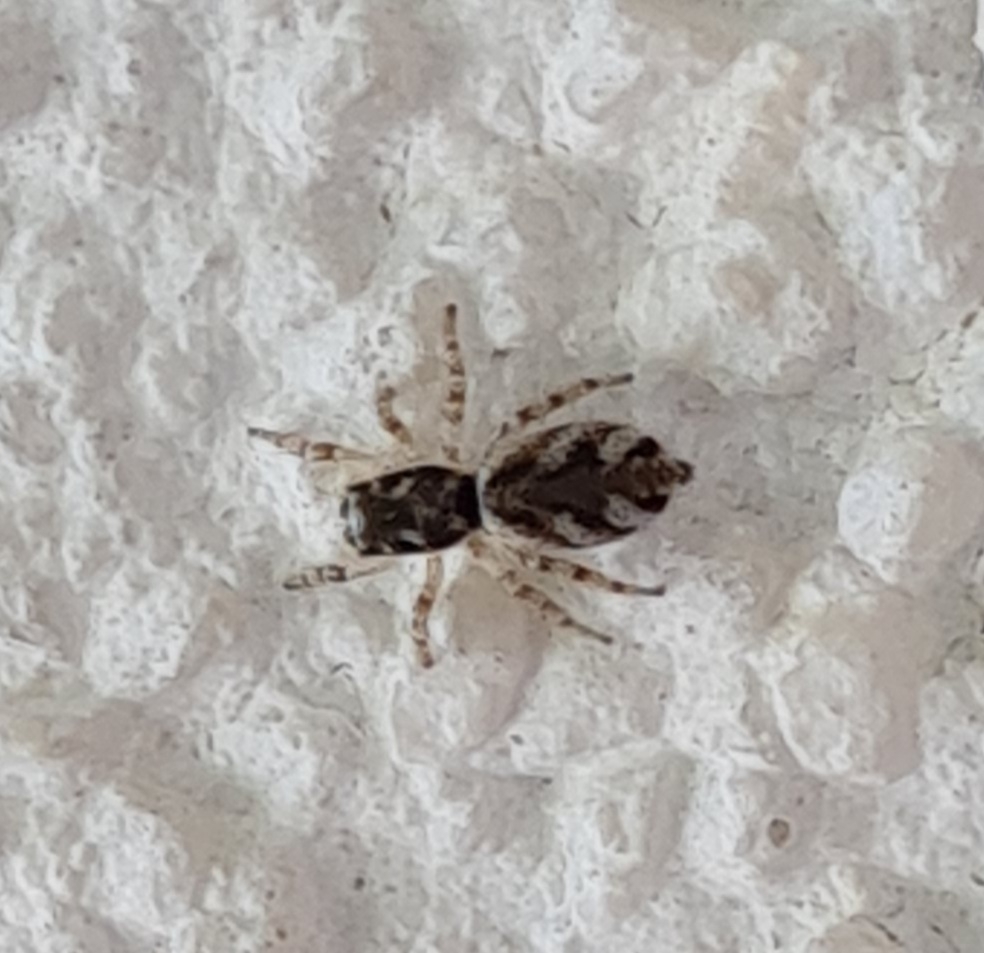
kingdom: Animalia
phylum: Arthropoda
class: Arachnida
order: Araneae
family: Salticidae
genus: Salticus
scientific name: Salticus scenicus
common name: Zebra jumper
